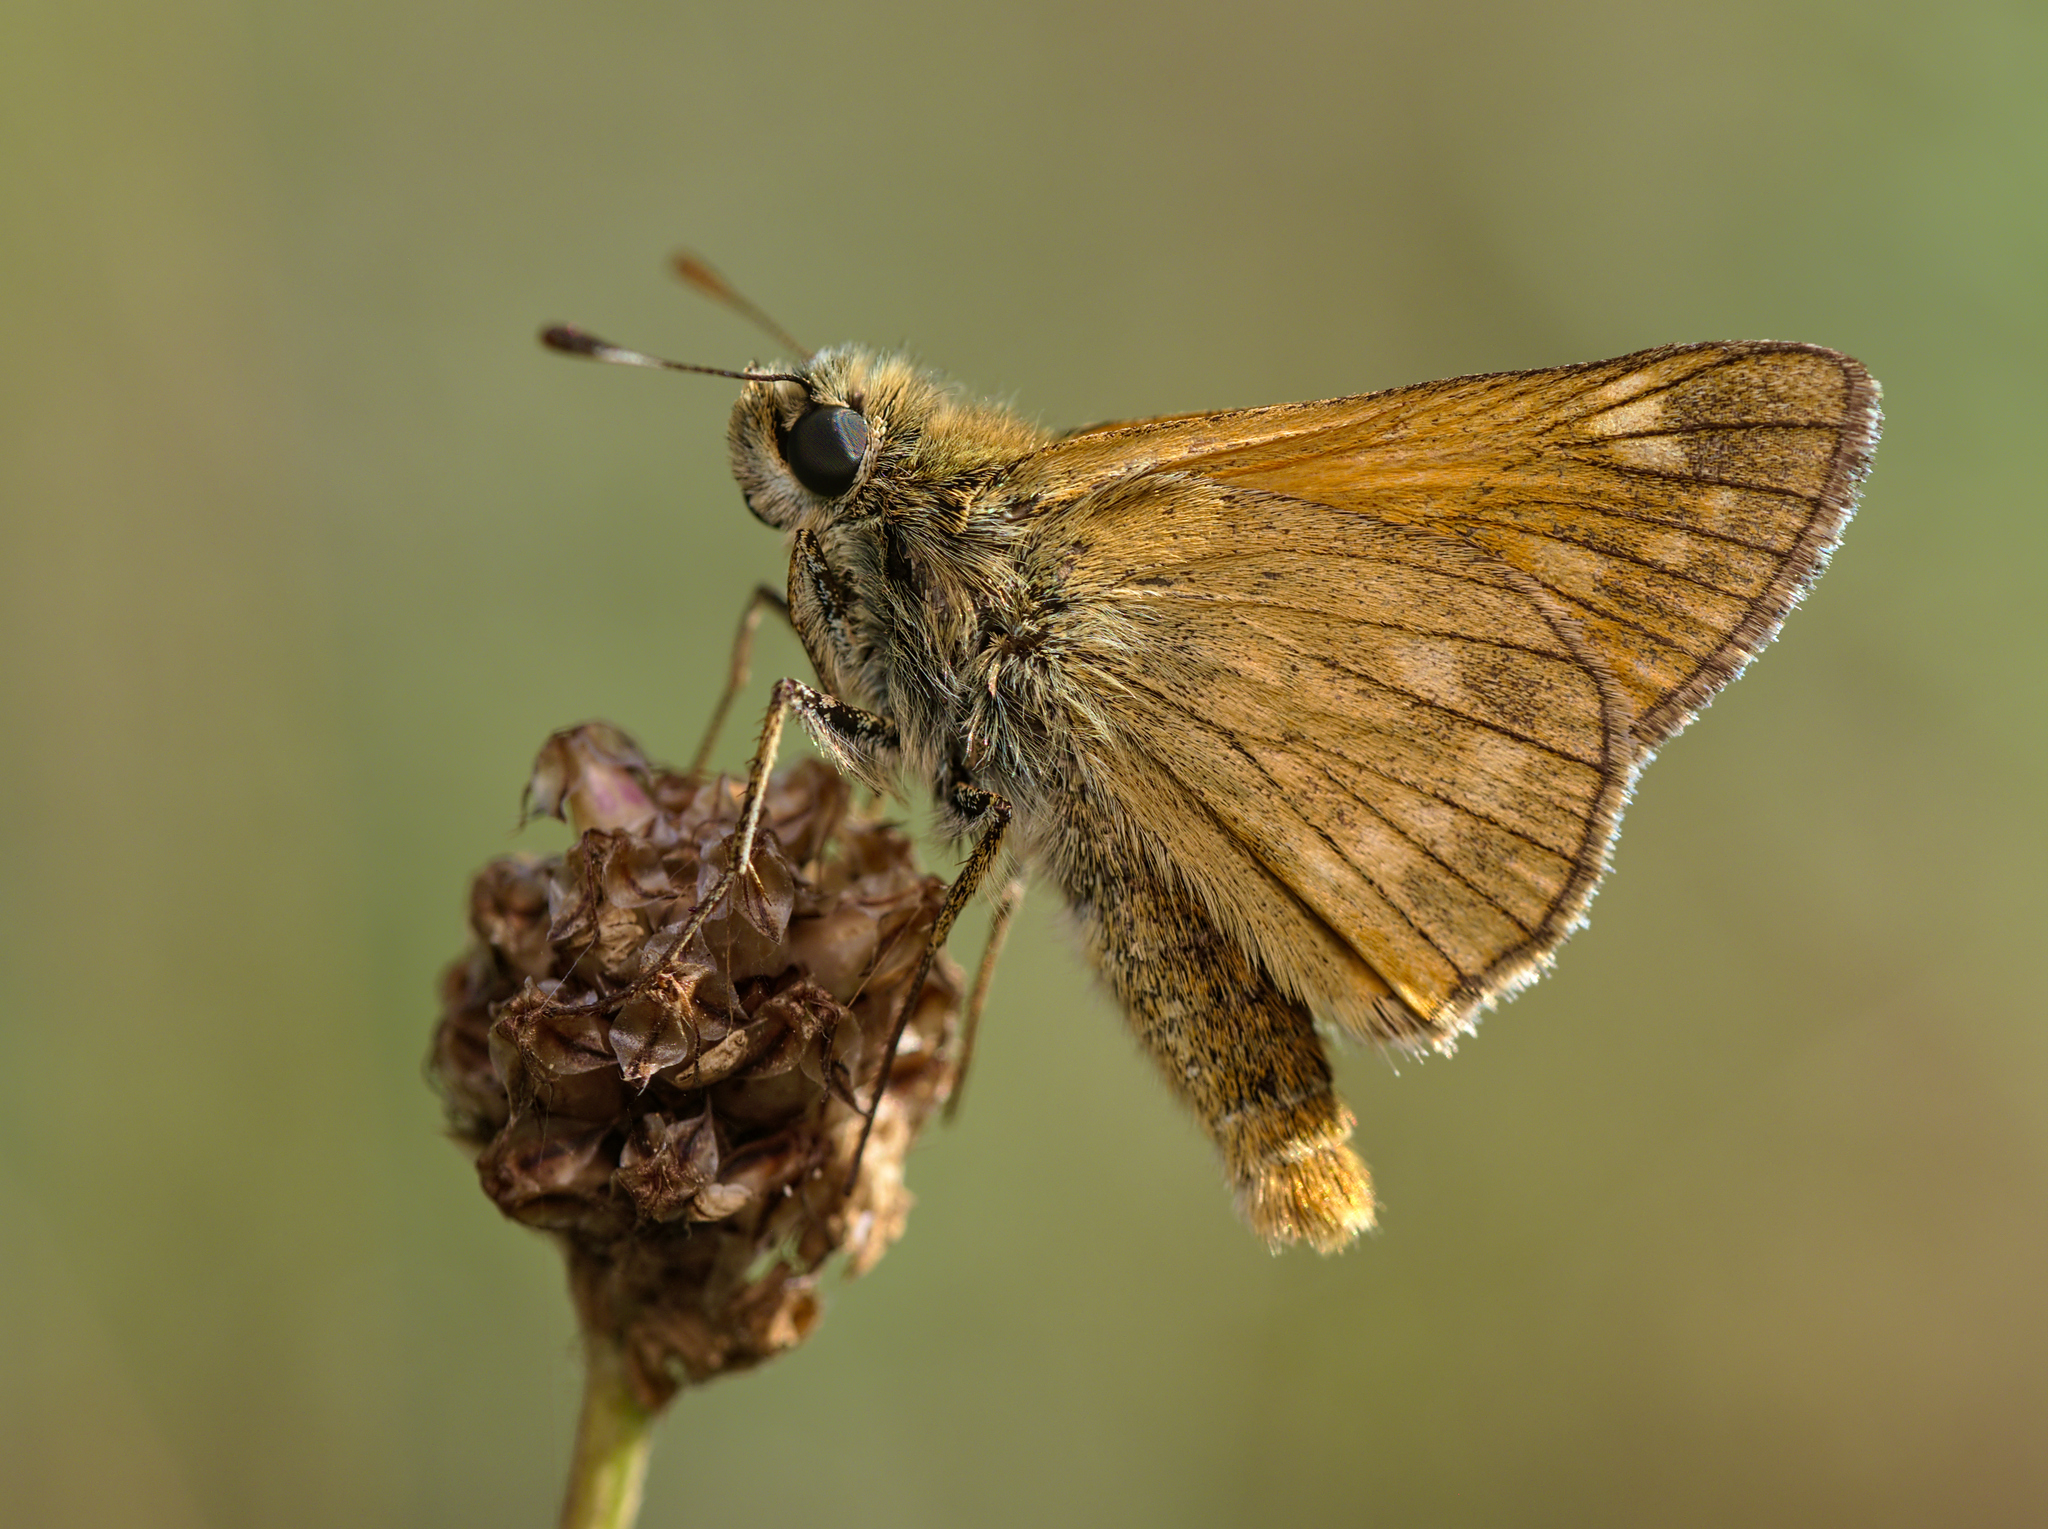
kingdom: Animalia
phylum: Arthropoda
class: Insecta
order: Lepidoptera
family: Hesperiidae
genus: Ochlodes
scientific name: Ochlodes venata
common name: Large skipper
